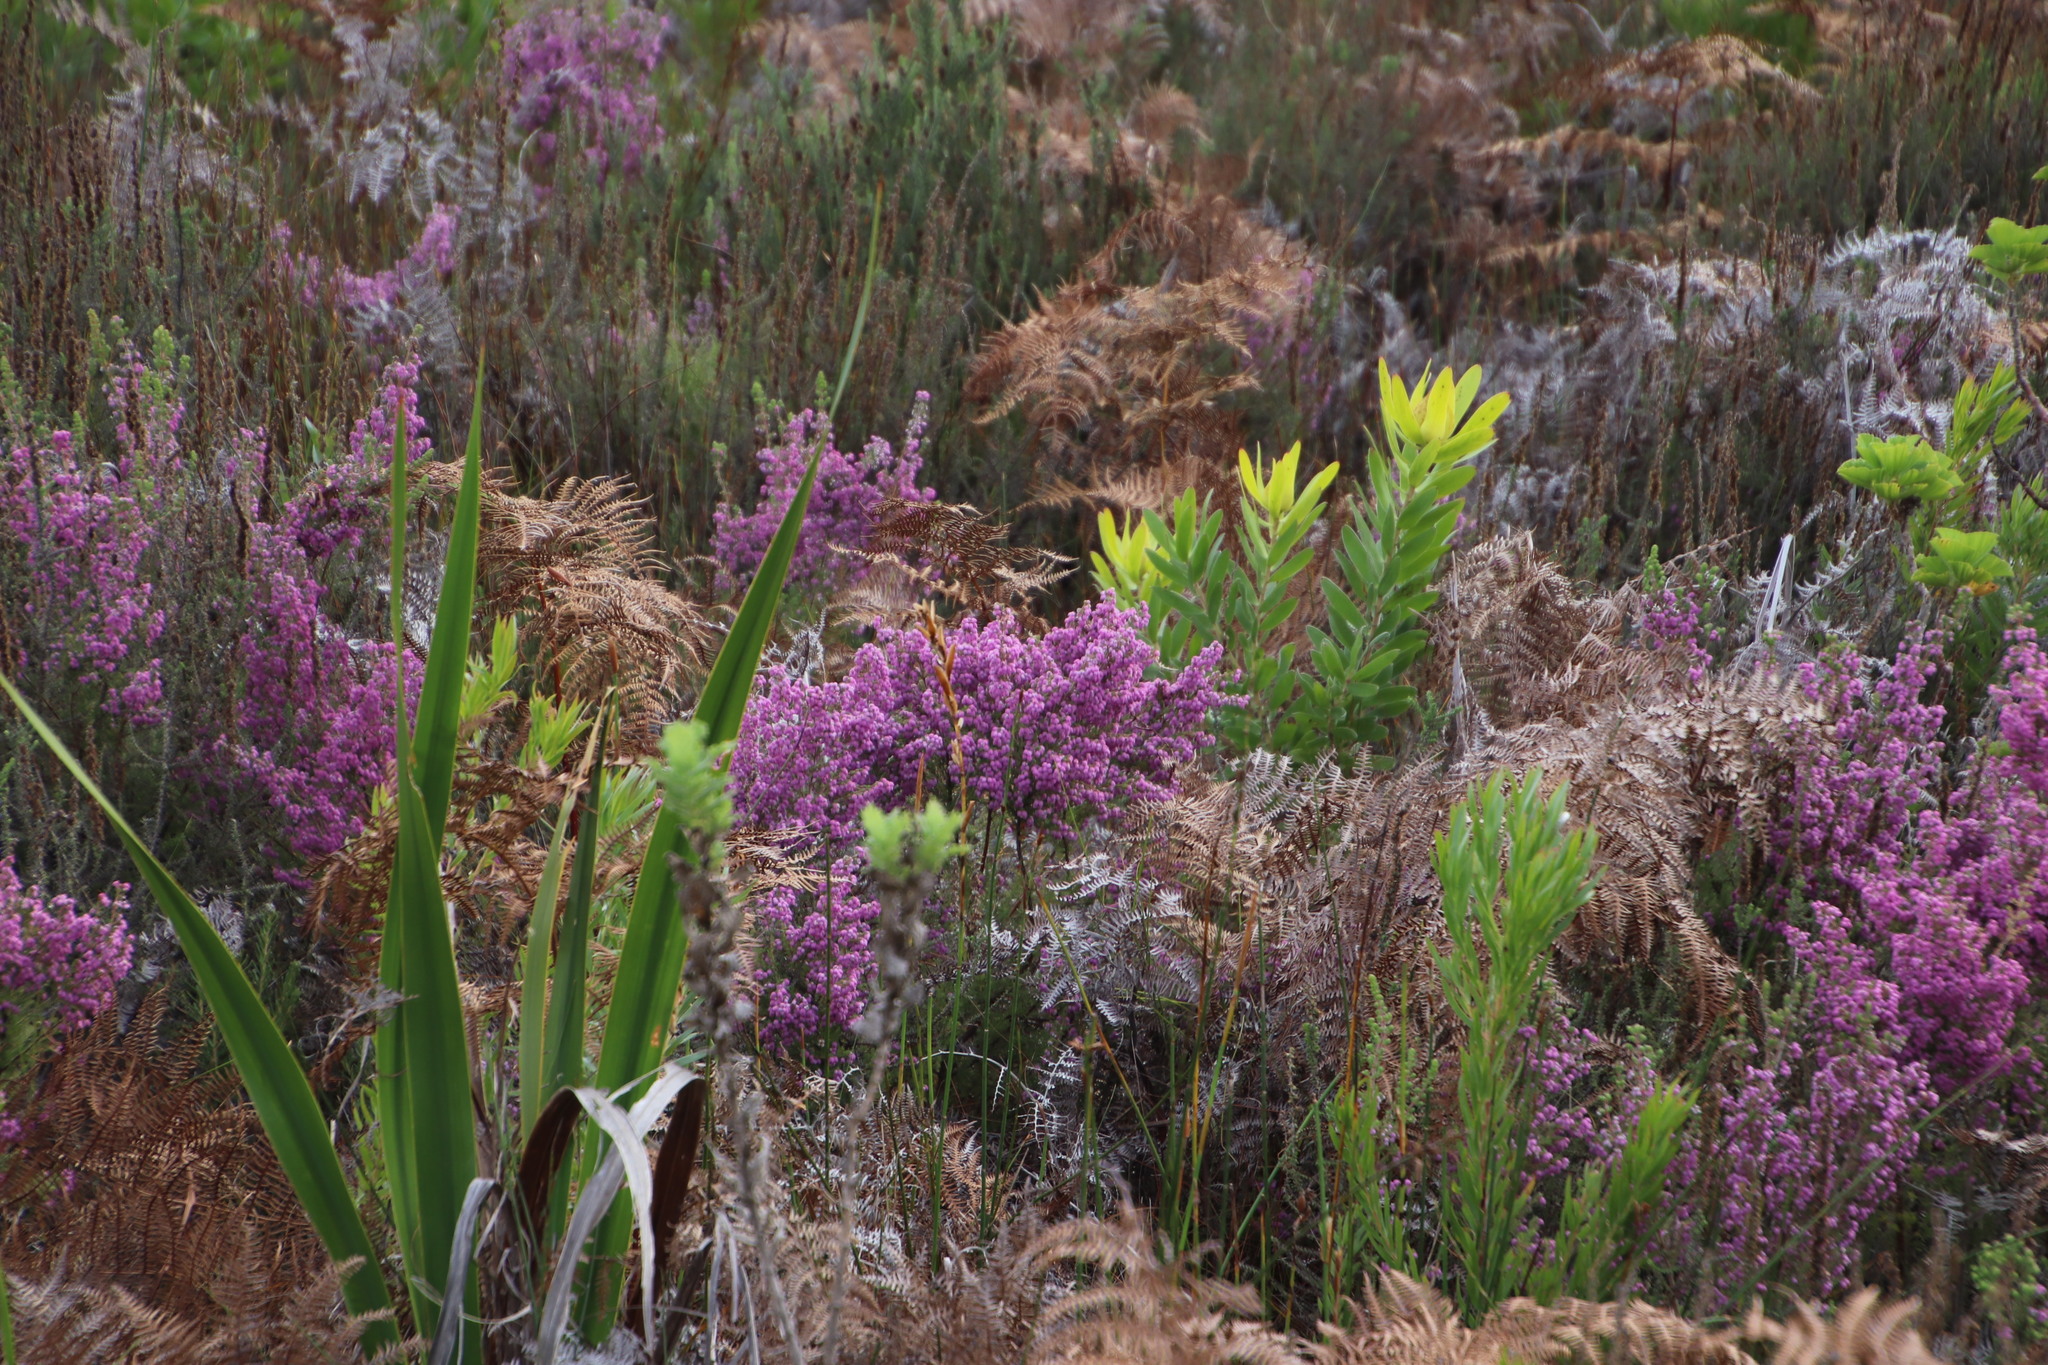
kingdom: Plantae
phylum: Tracheophyta
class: Magnoliopsida
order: Ericales
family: Ericaceae
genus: Erica
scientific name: Erica hirtiflora
